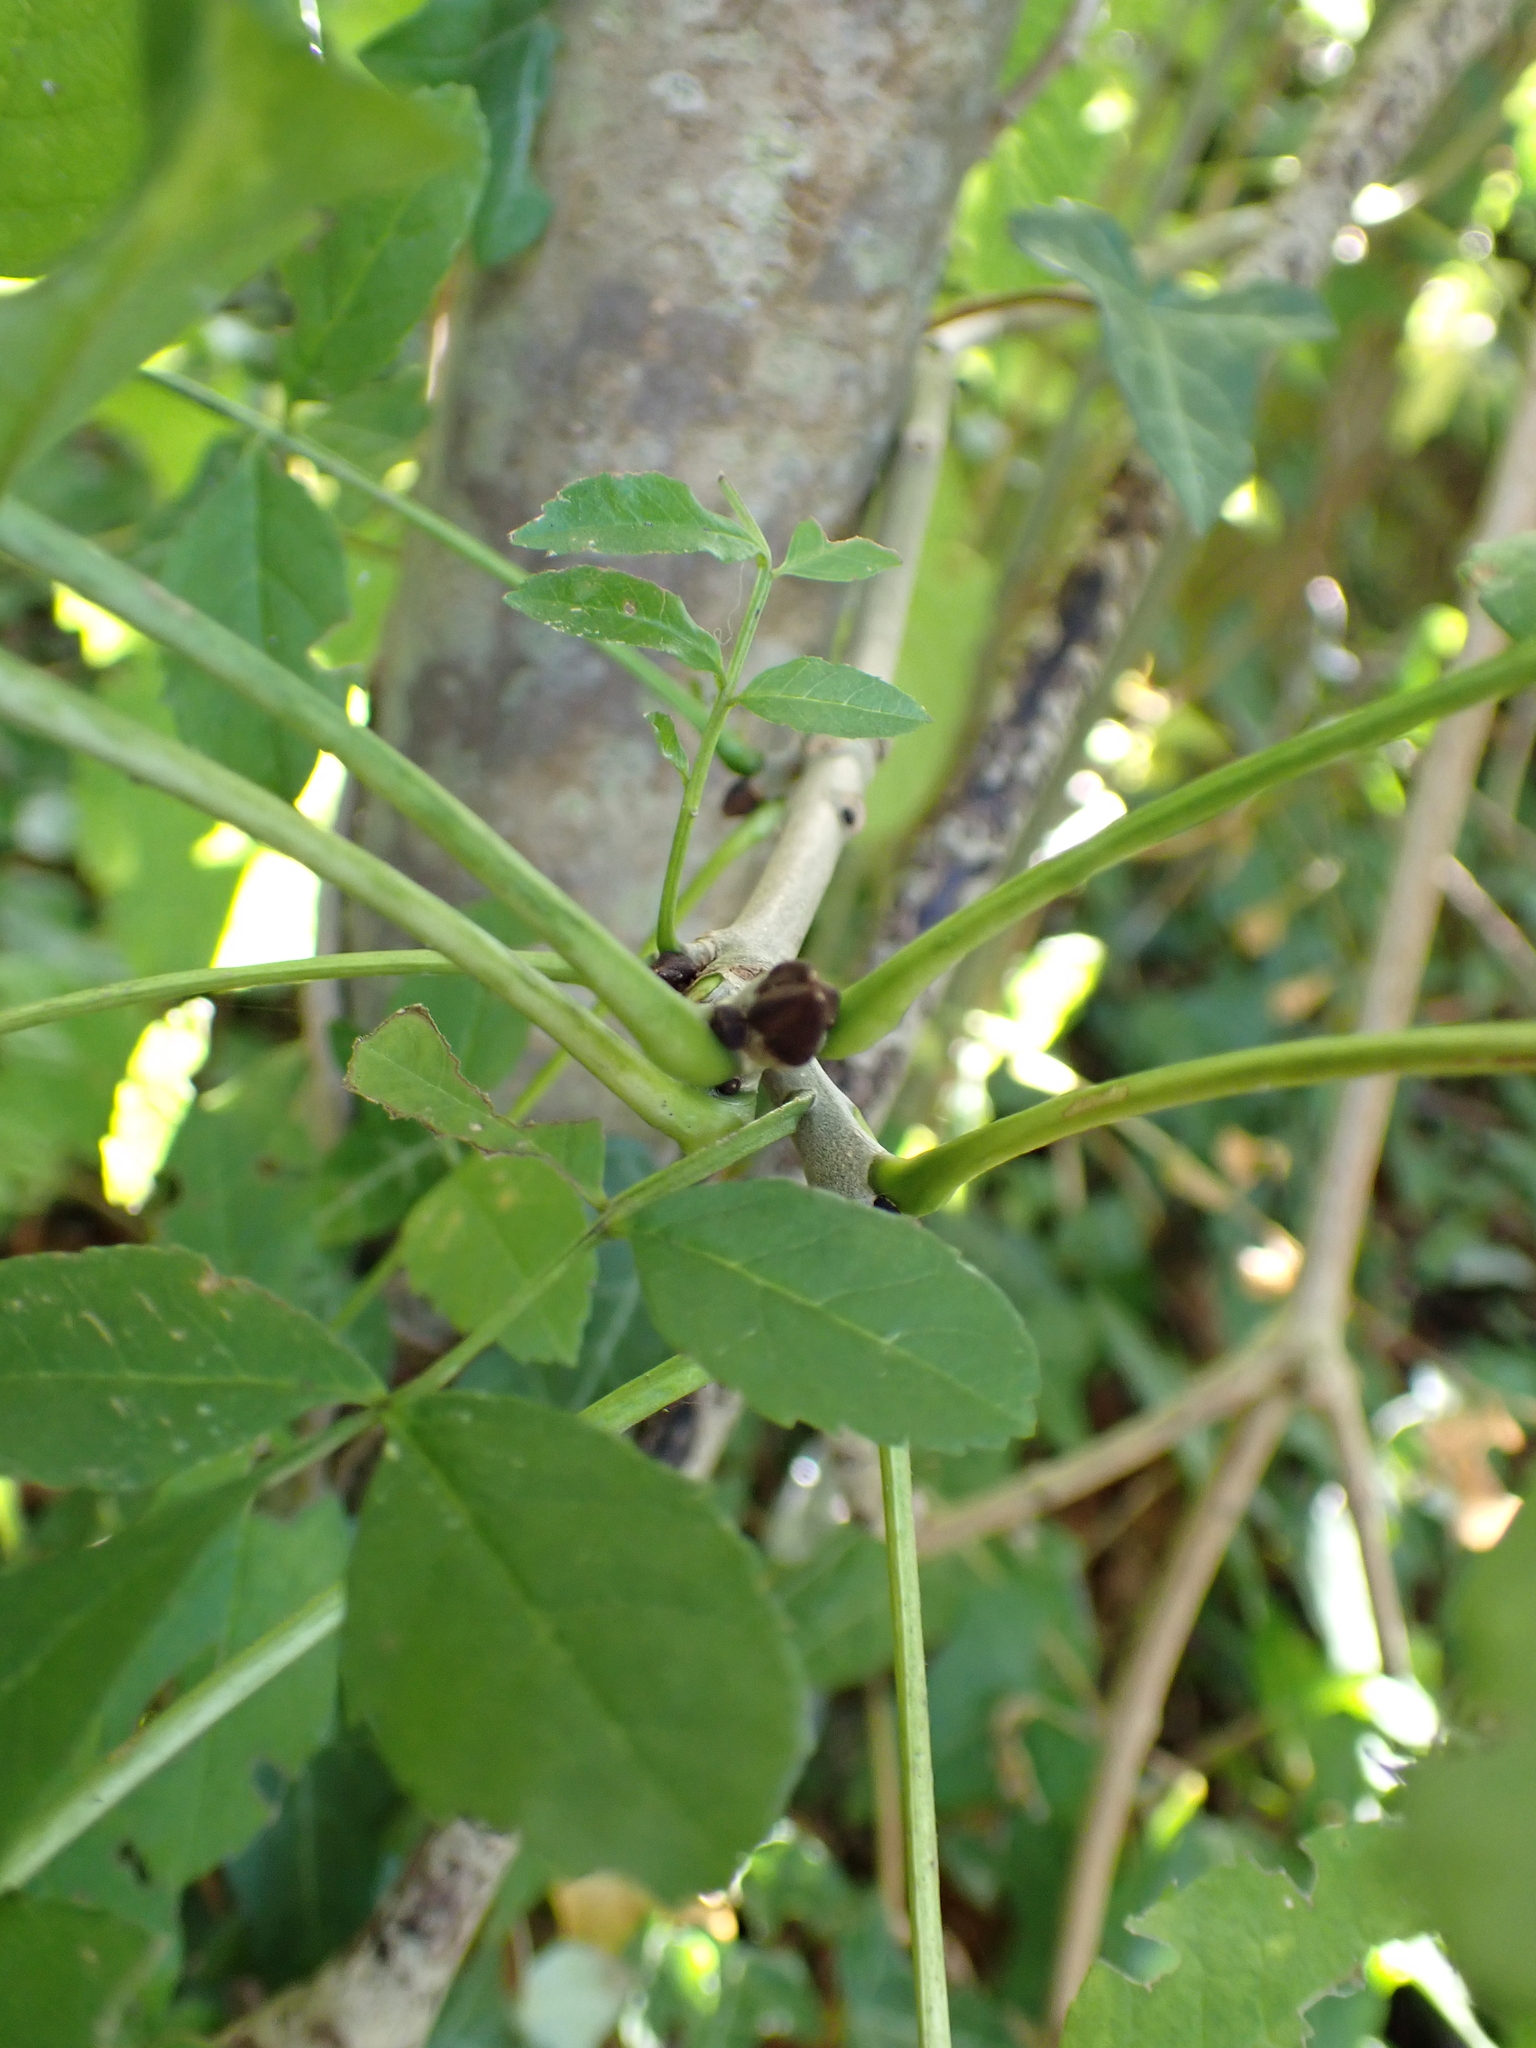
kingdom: Plantae
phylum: Tracheophyta
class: Magnoliopsida
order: Lamiales
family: Oleaceae
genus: Fraxinus
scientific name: Fraxinus excelsior
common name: European ash
